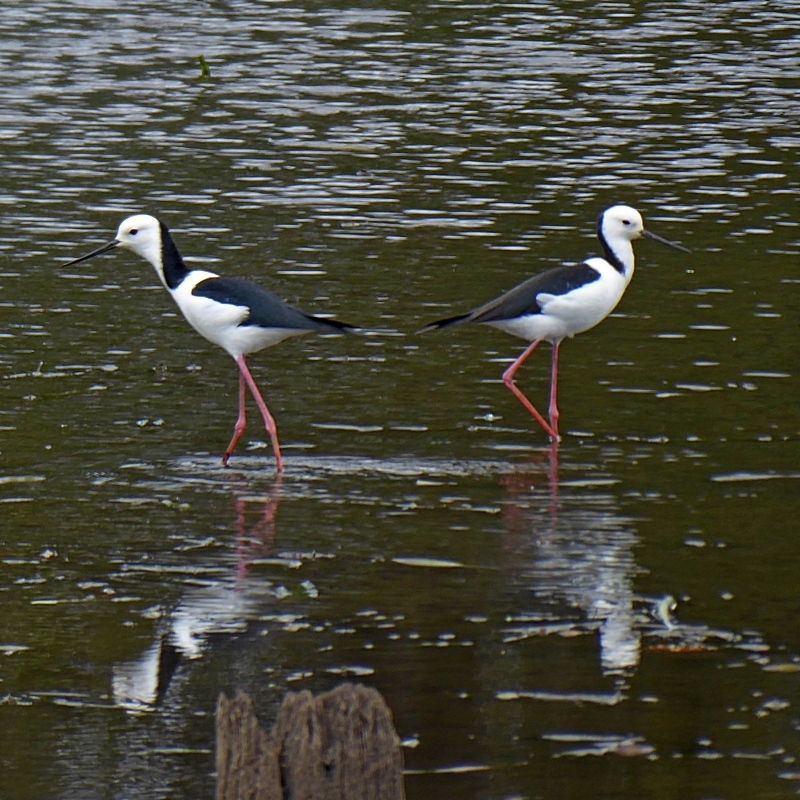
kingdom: Animalia
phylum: Chordata
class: Aves
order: Charadriiformes
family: Recurvirostridae
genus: Himantopus
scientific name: Himantopus leucocephalus
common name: White-headed stilt
